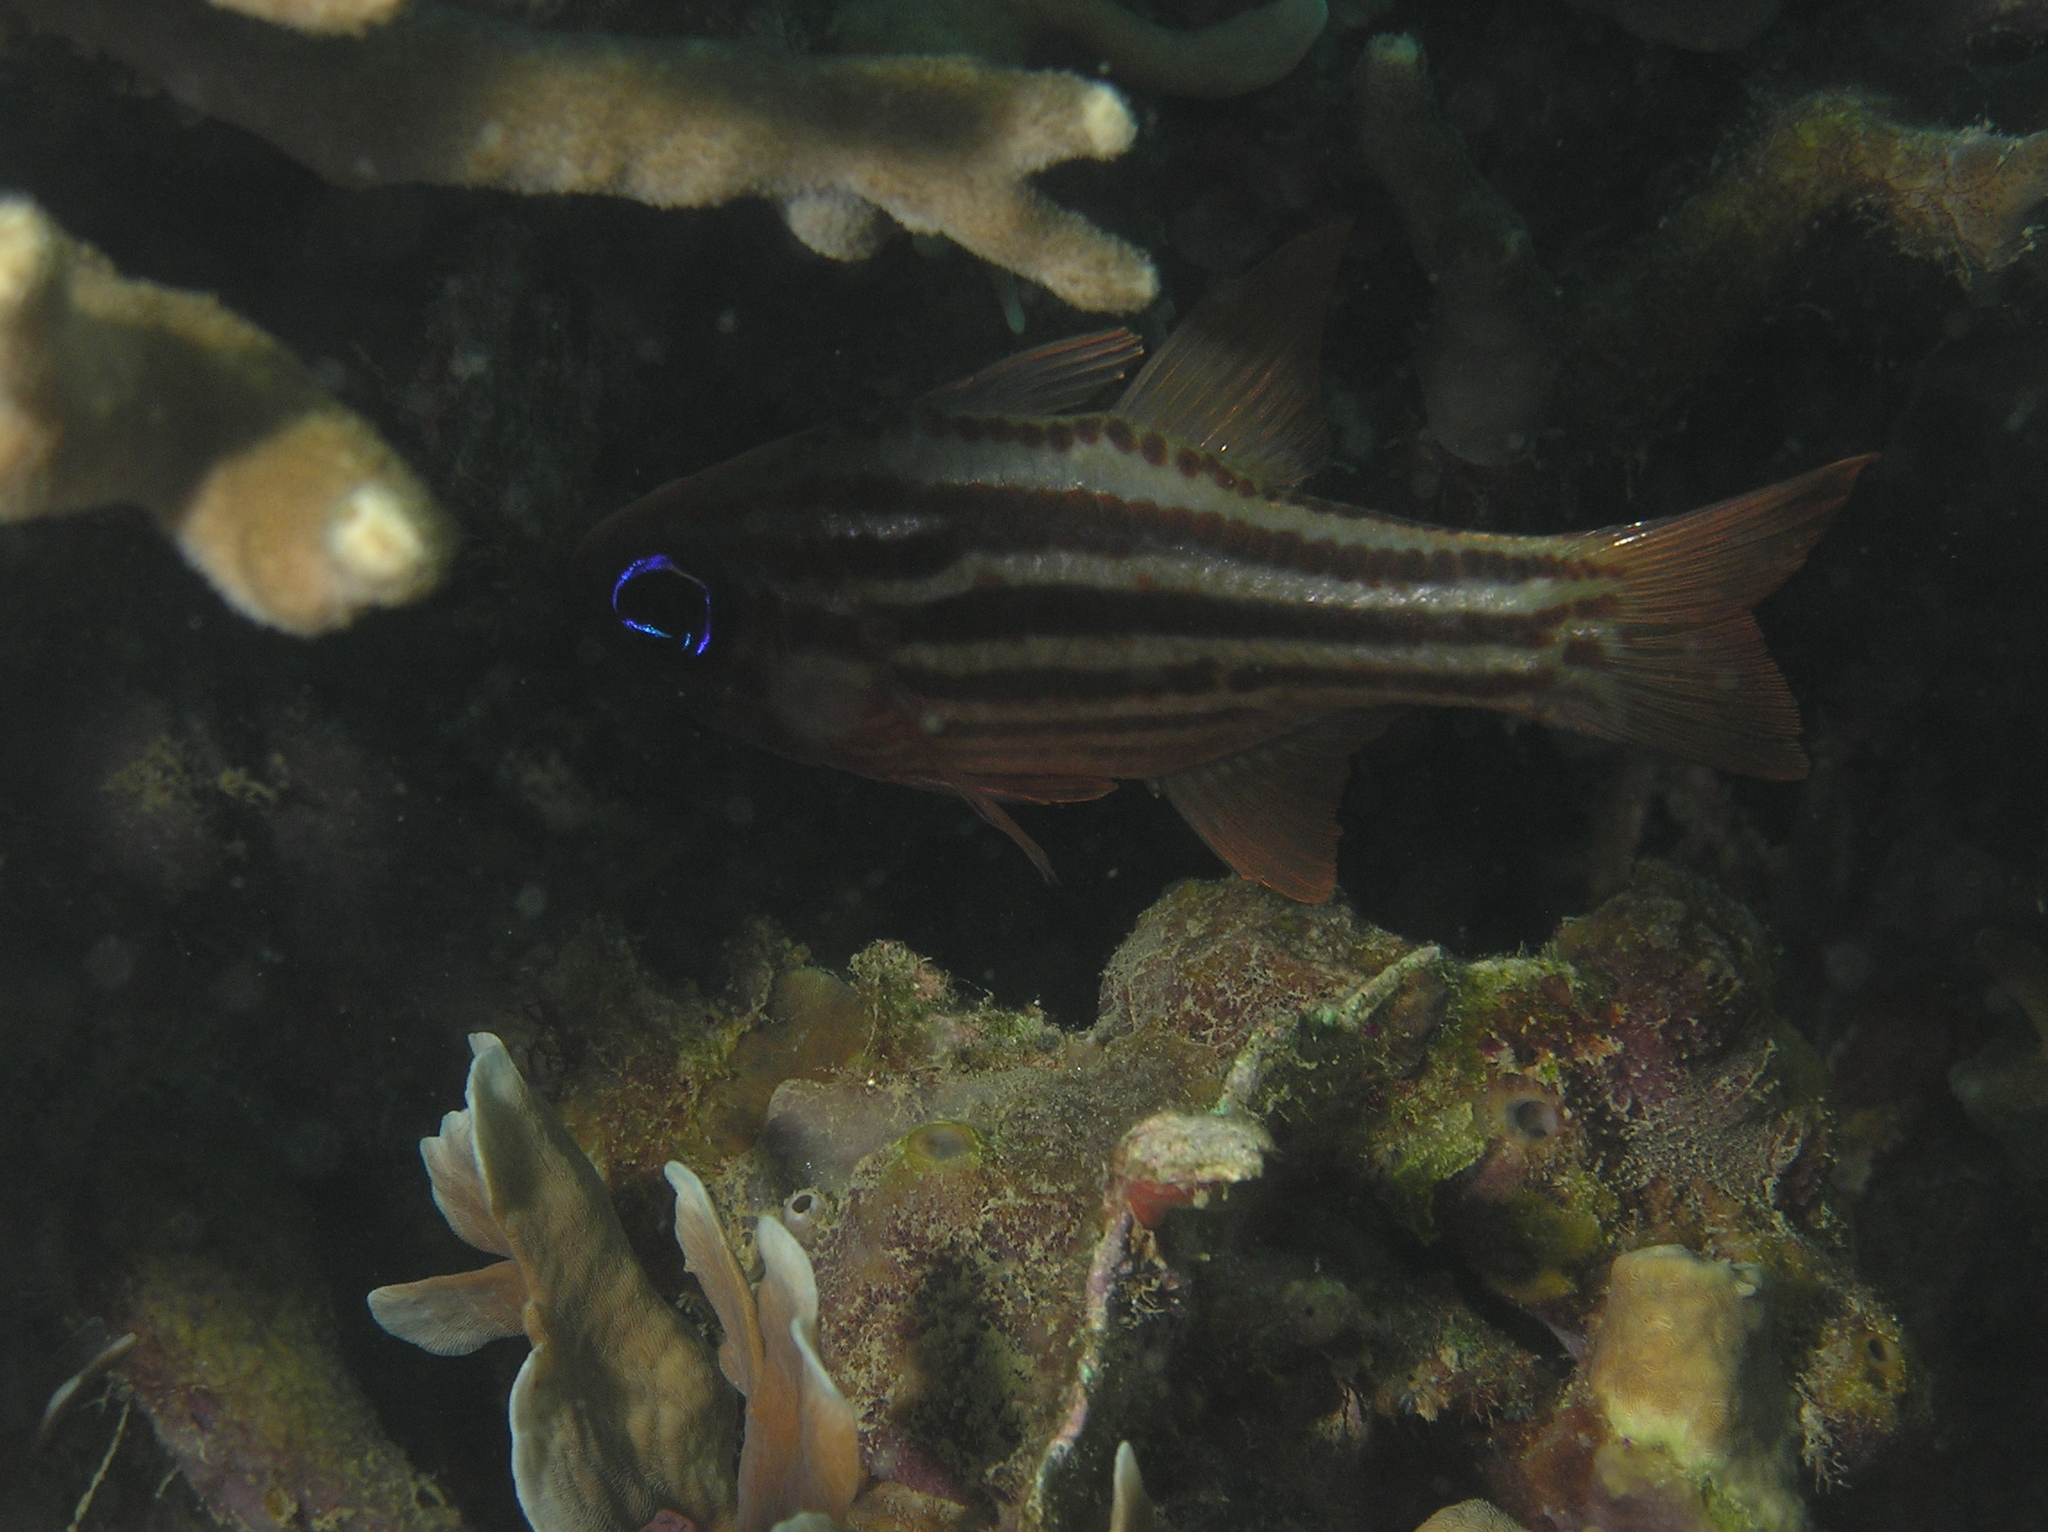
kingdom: Animalia
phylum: Chordata
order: Perciformes
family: Apogonidae
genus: Ostorhinchus
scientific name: Ostorhinchus compressus
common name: Ochre-striped cardinalfish
